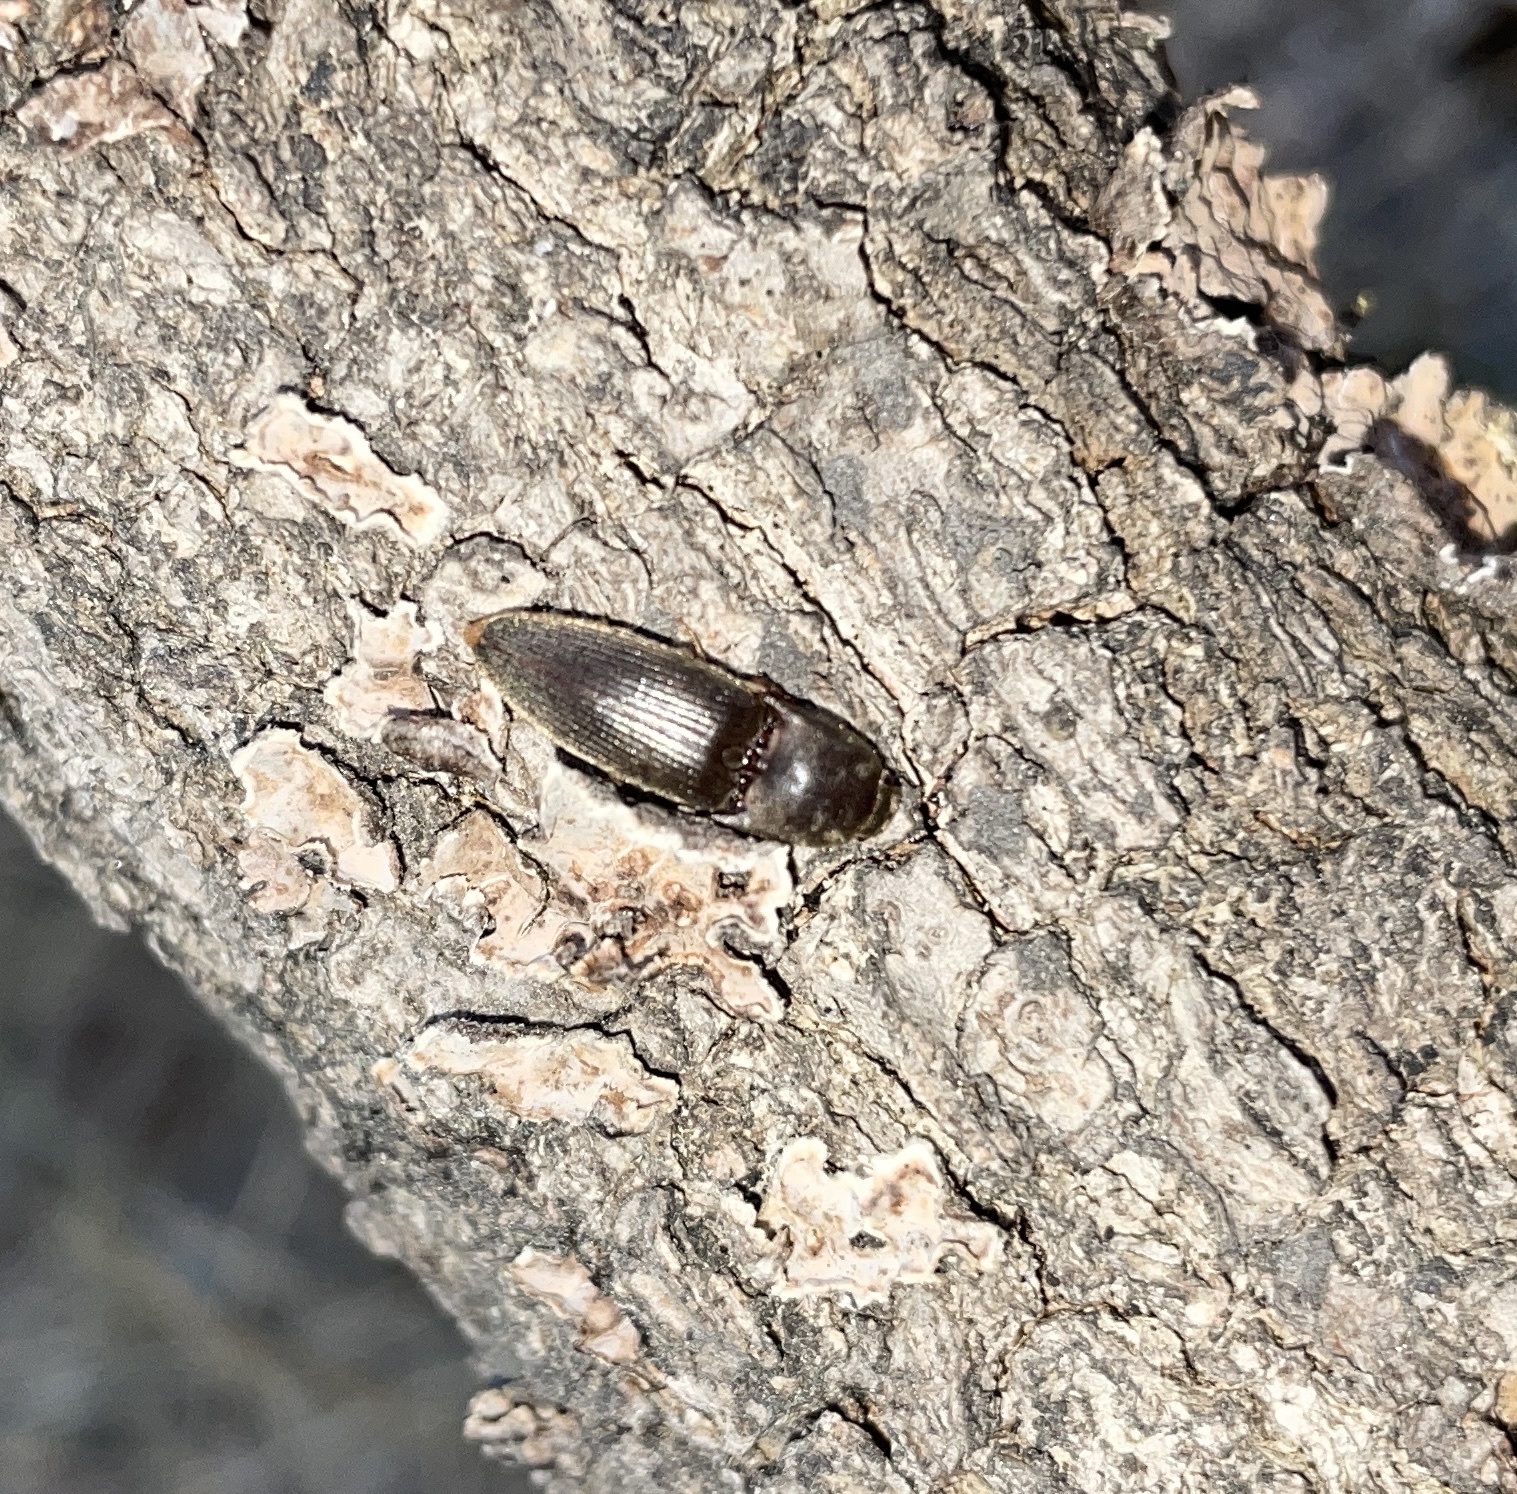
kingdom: Animalia
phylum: Arthropoda
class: Insecta
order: Coleoptera
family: Elateridae
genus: Conoderus
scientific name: Conoderus exsul
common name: Click beetle
